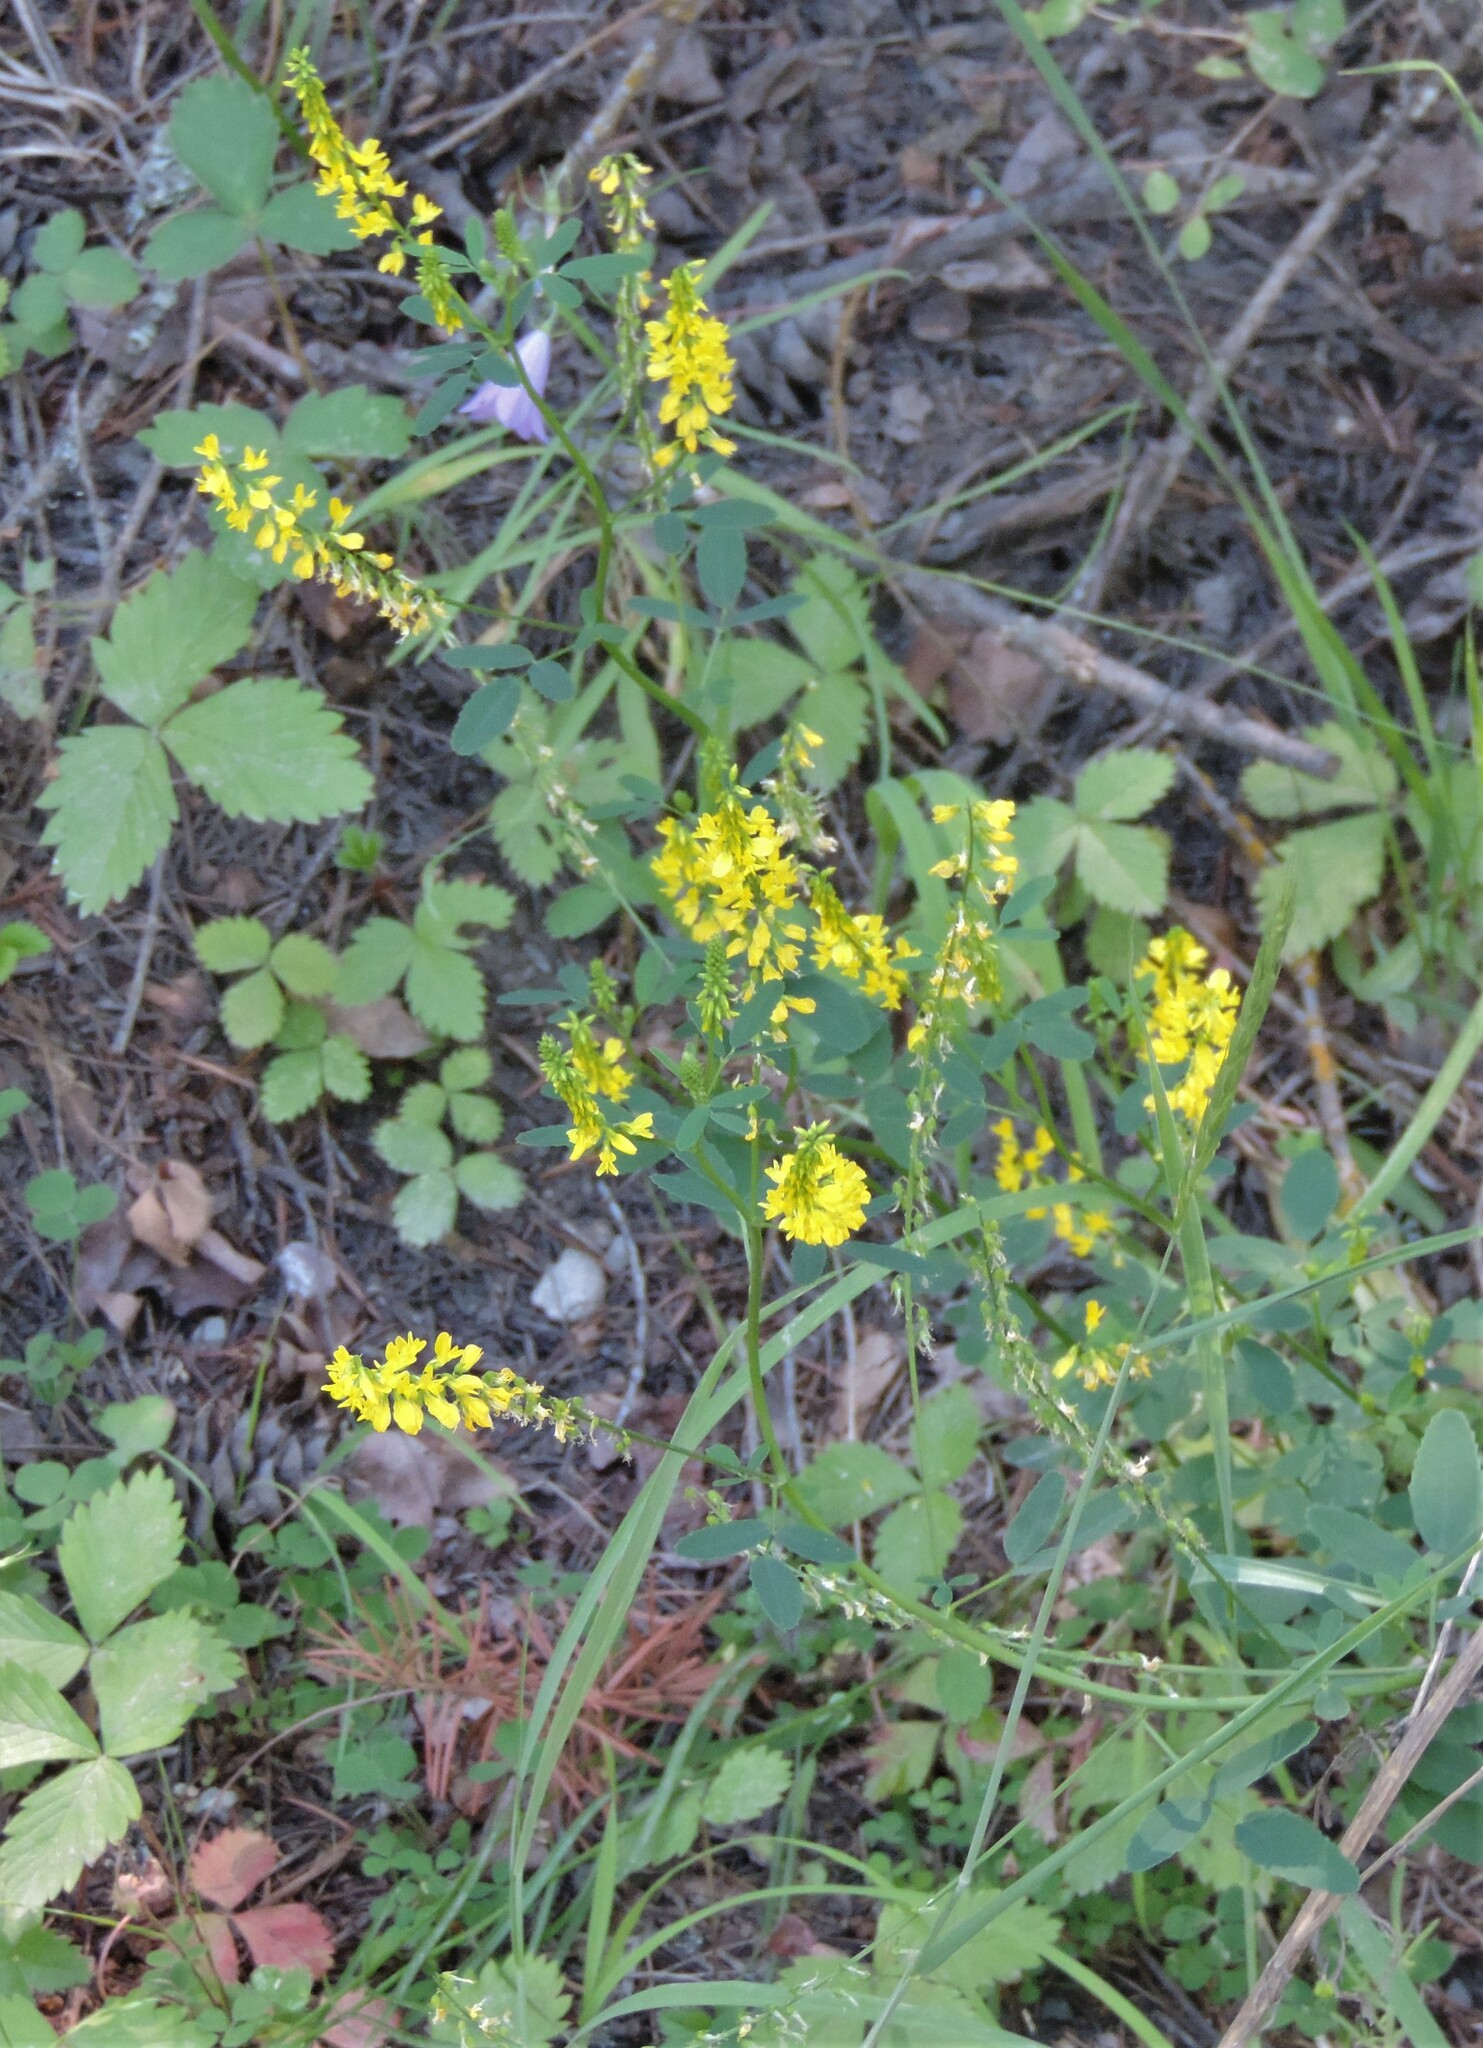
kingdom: Plantae
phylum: Tracheophyta
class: Magnoliopsida
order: Fabales
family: Fabaceae
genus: Melilotus
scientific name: Melilotus officinalis
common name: Sweetclover
